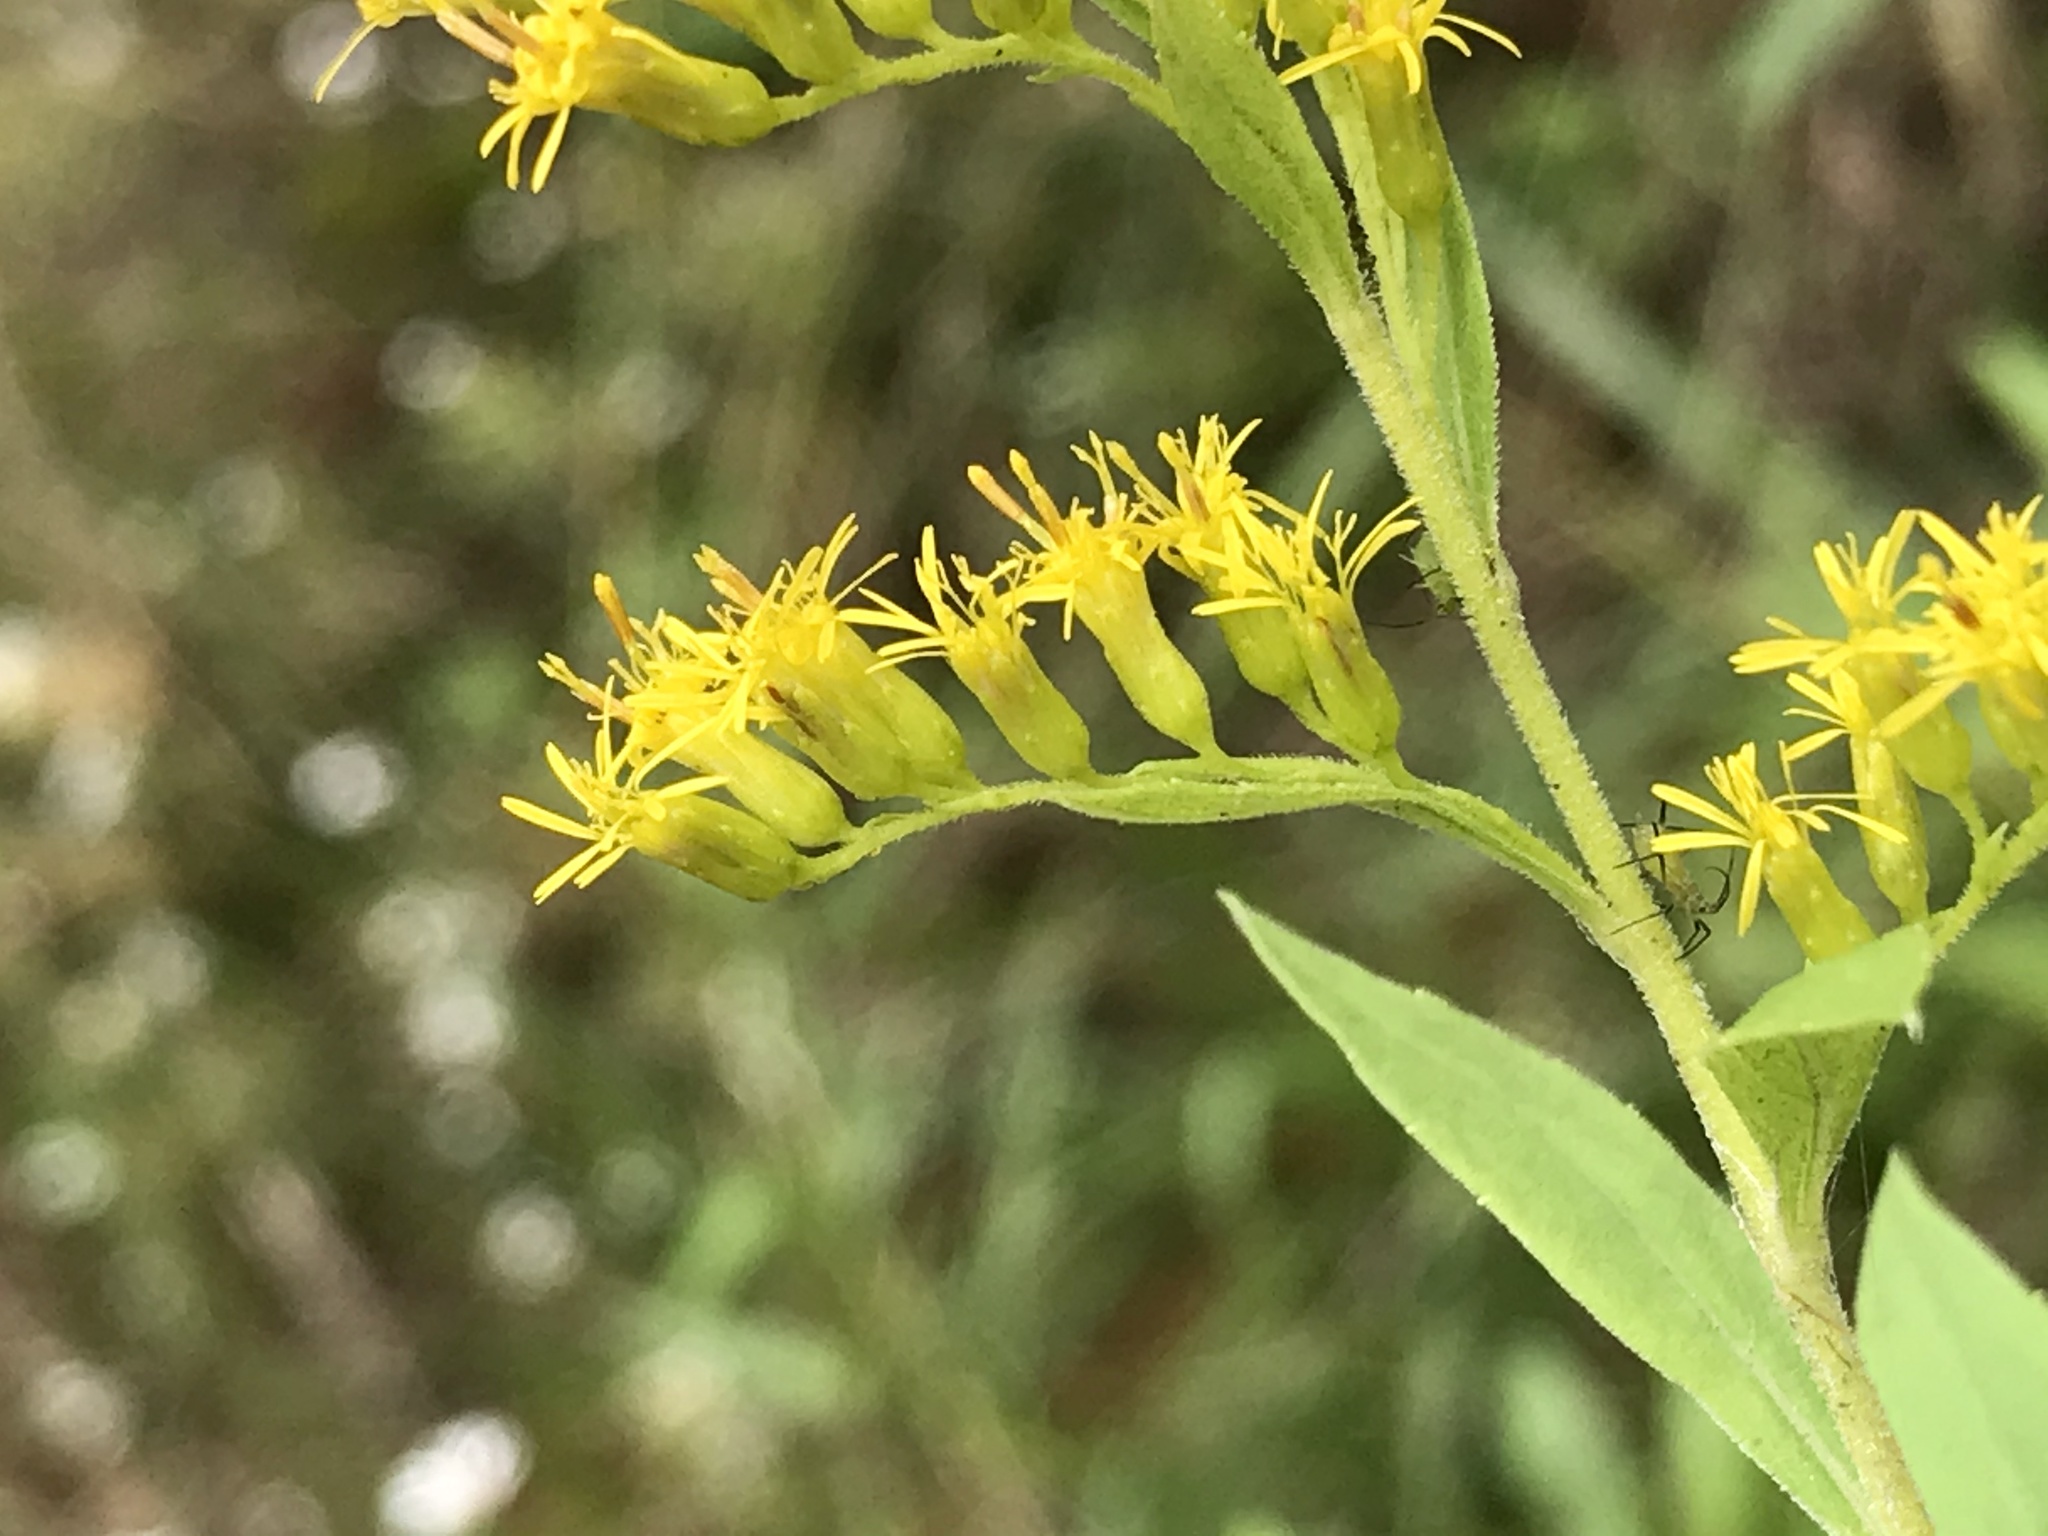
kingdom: Plantae
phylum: Tracheophyta
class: Magnoliopsida
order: Asterales
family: Asteraceae
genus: Solidago
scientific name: Solidago altissima
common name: Late goldenrod
